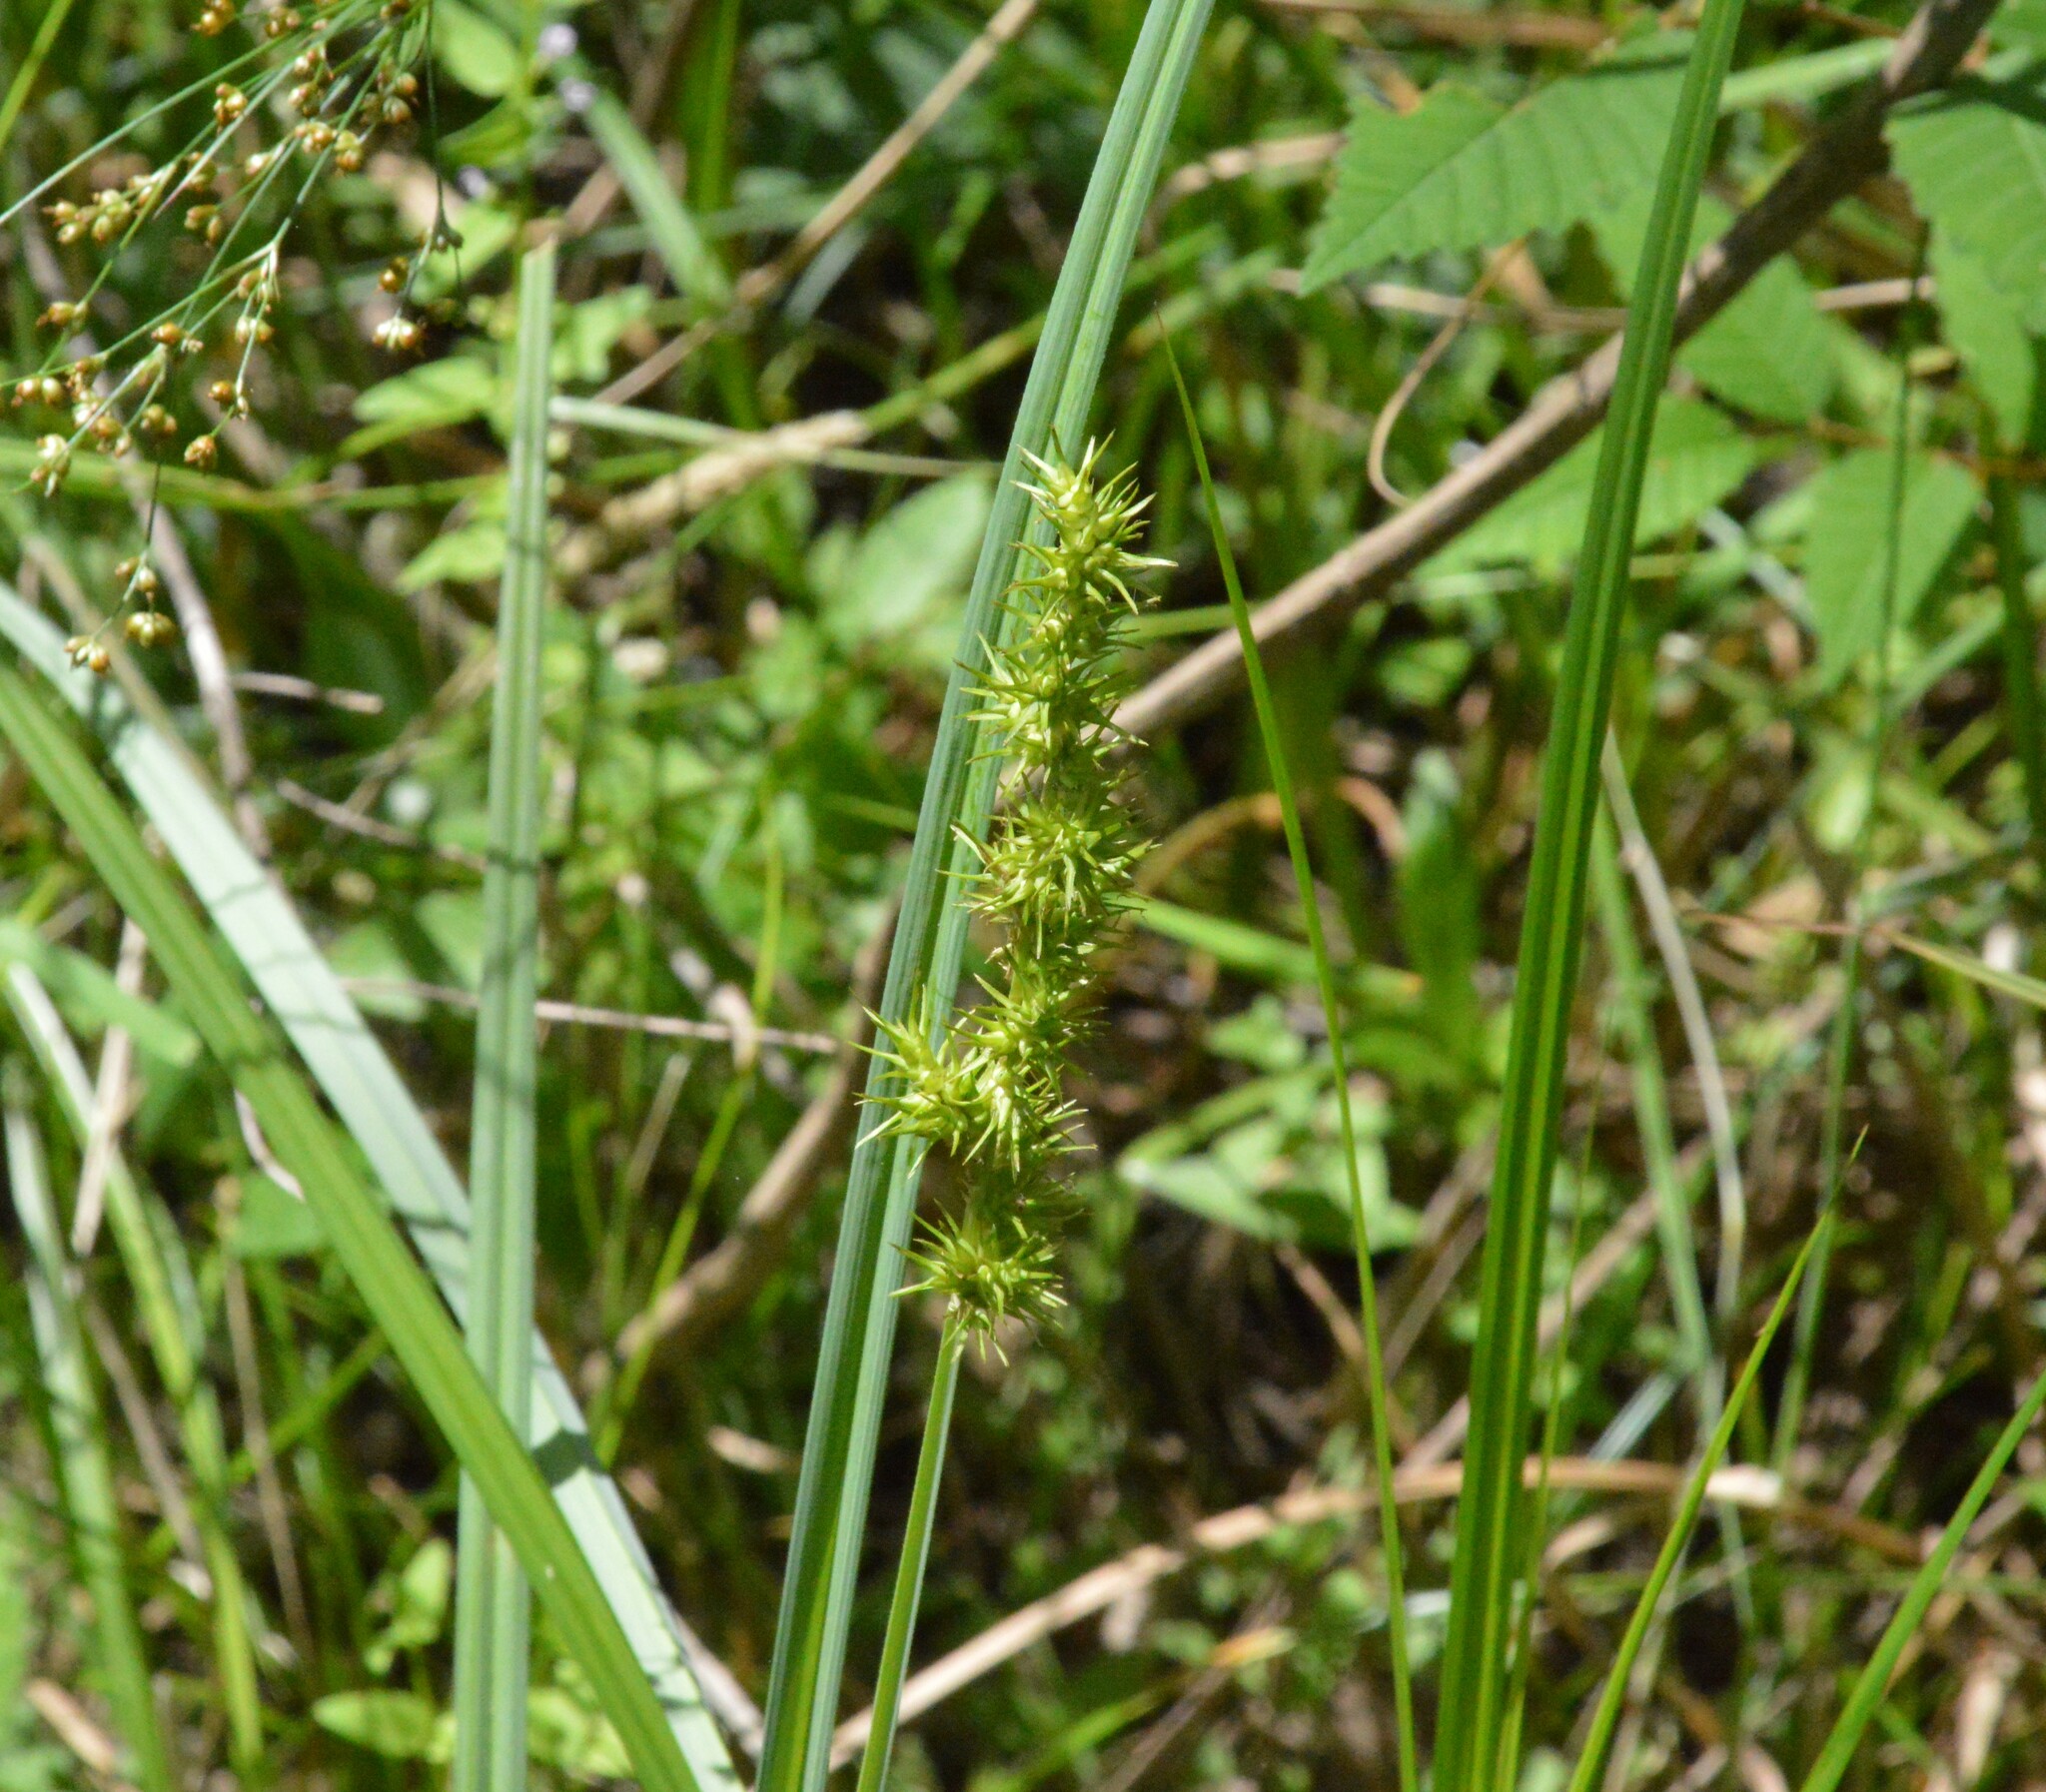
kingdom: Plantae
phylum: Tracheophyta
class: Liliopsida
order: Poales
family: Cyperaceae
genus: Carex
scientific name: Carex crus-corvi
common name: Crow-spur sedge
